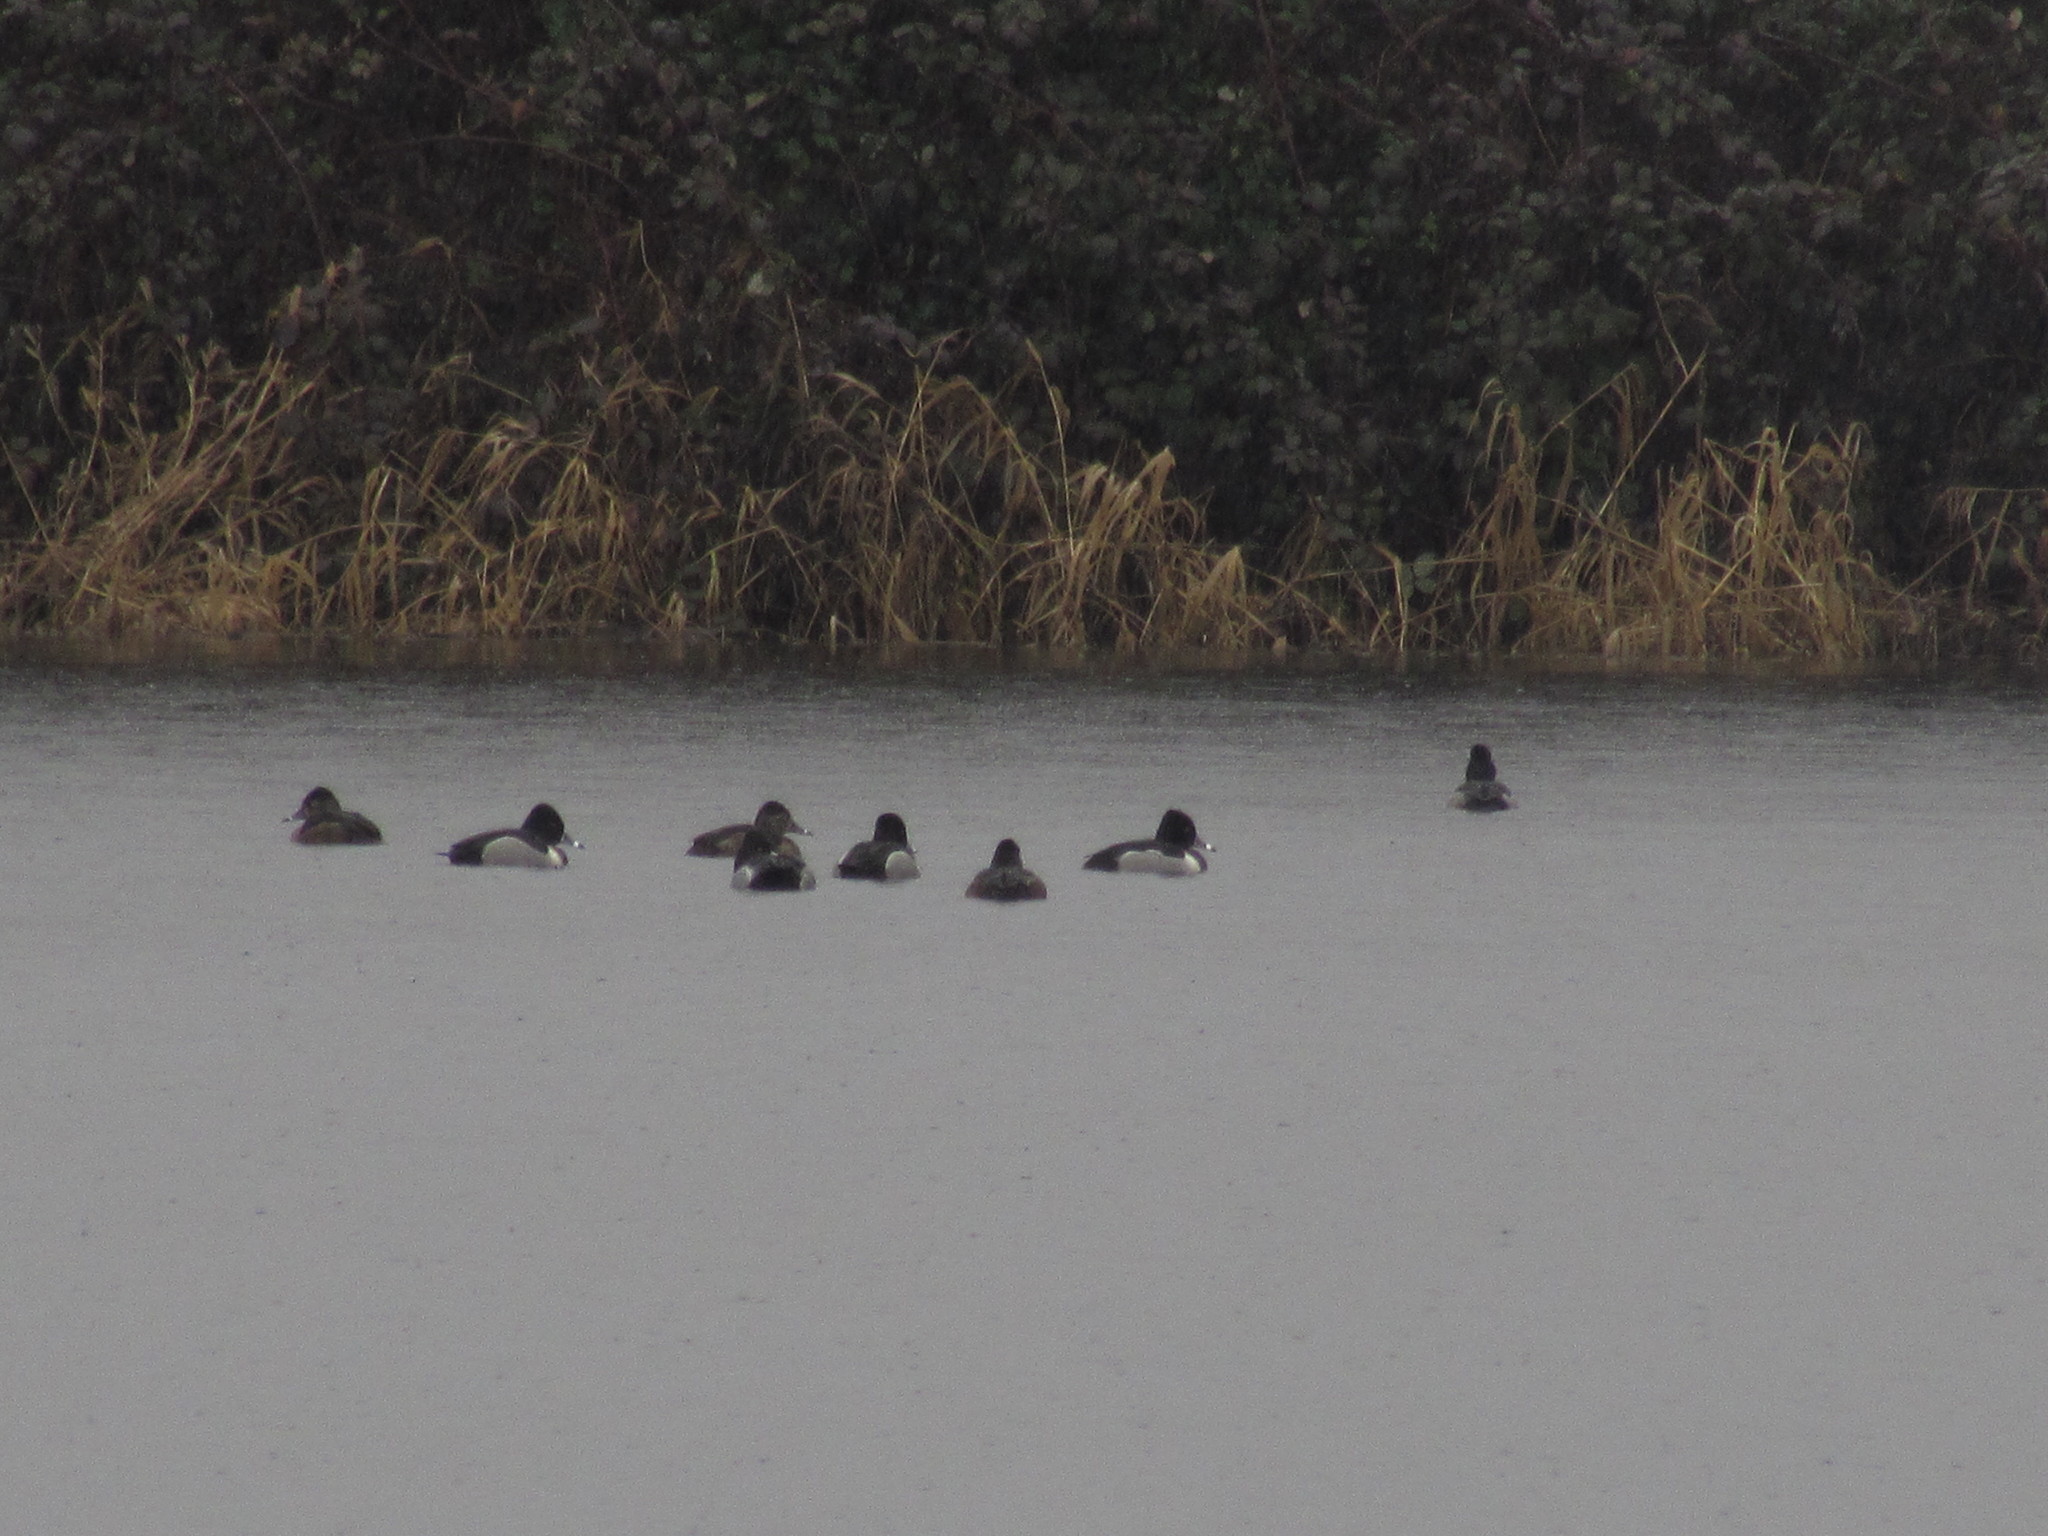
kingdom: Animalia
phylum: Chordata
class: Aves
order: Anseriformes
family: Anatidae
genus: Aythya
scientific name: Aythya collaris
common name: Ring-necked duck
